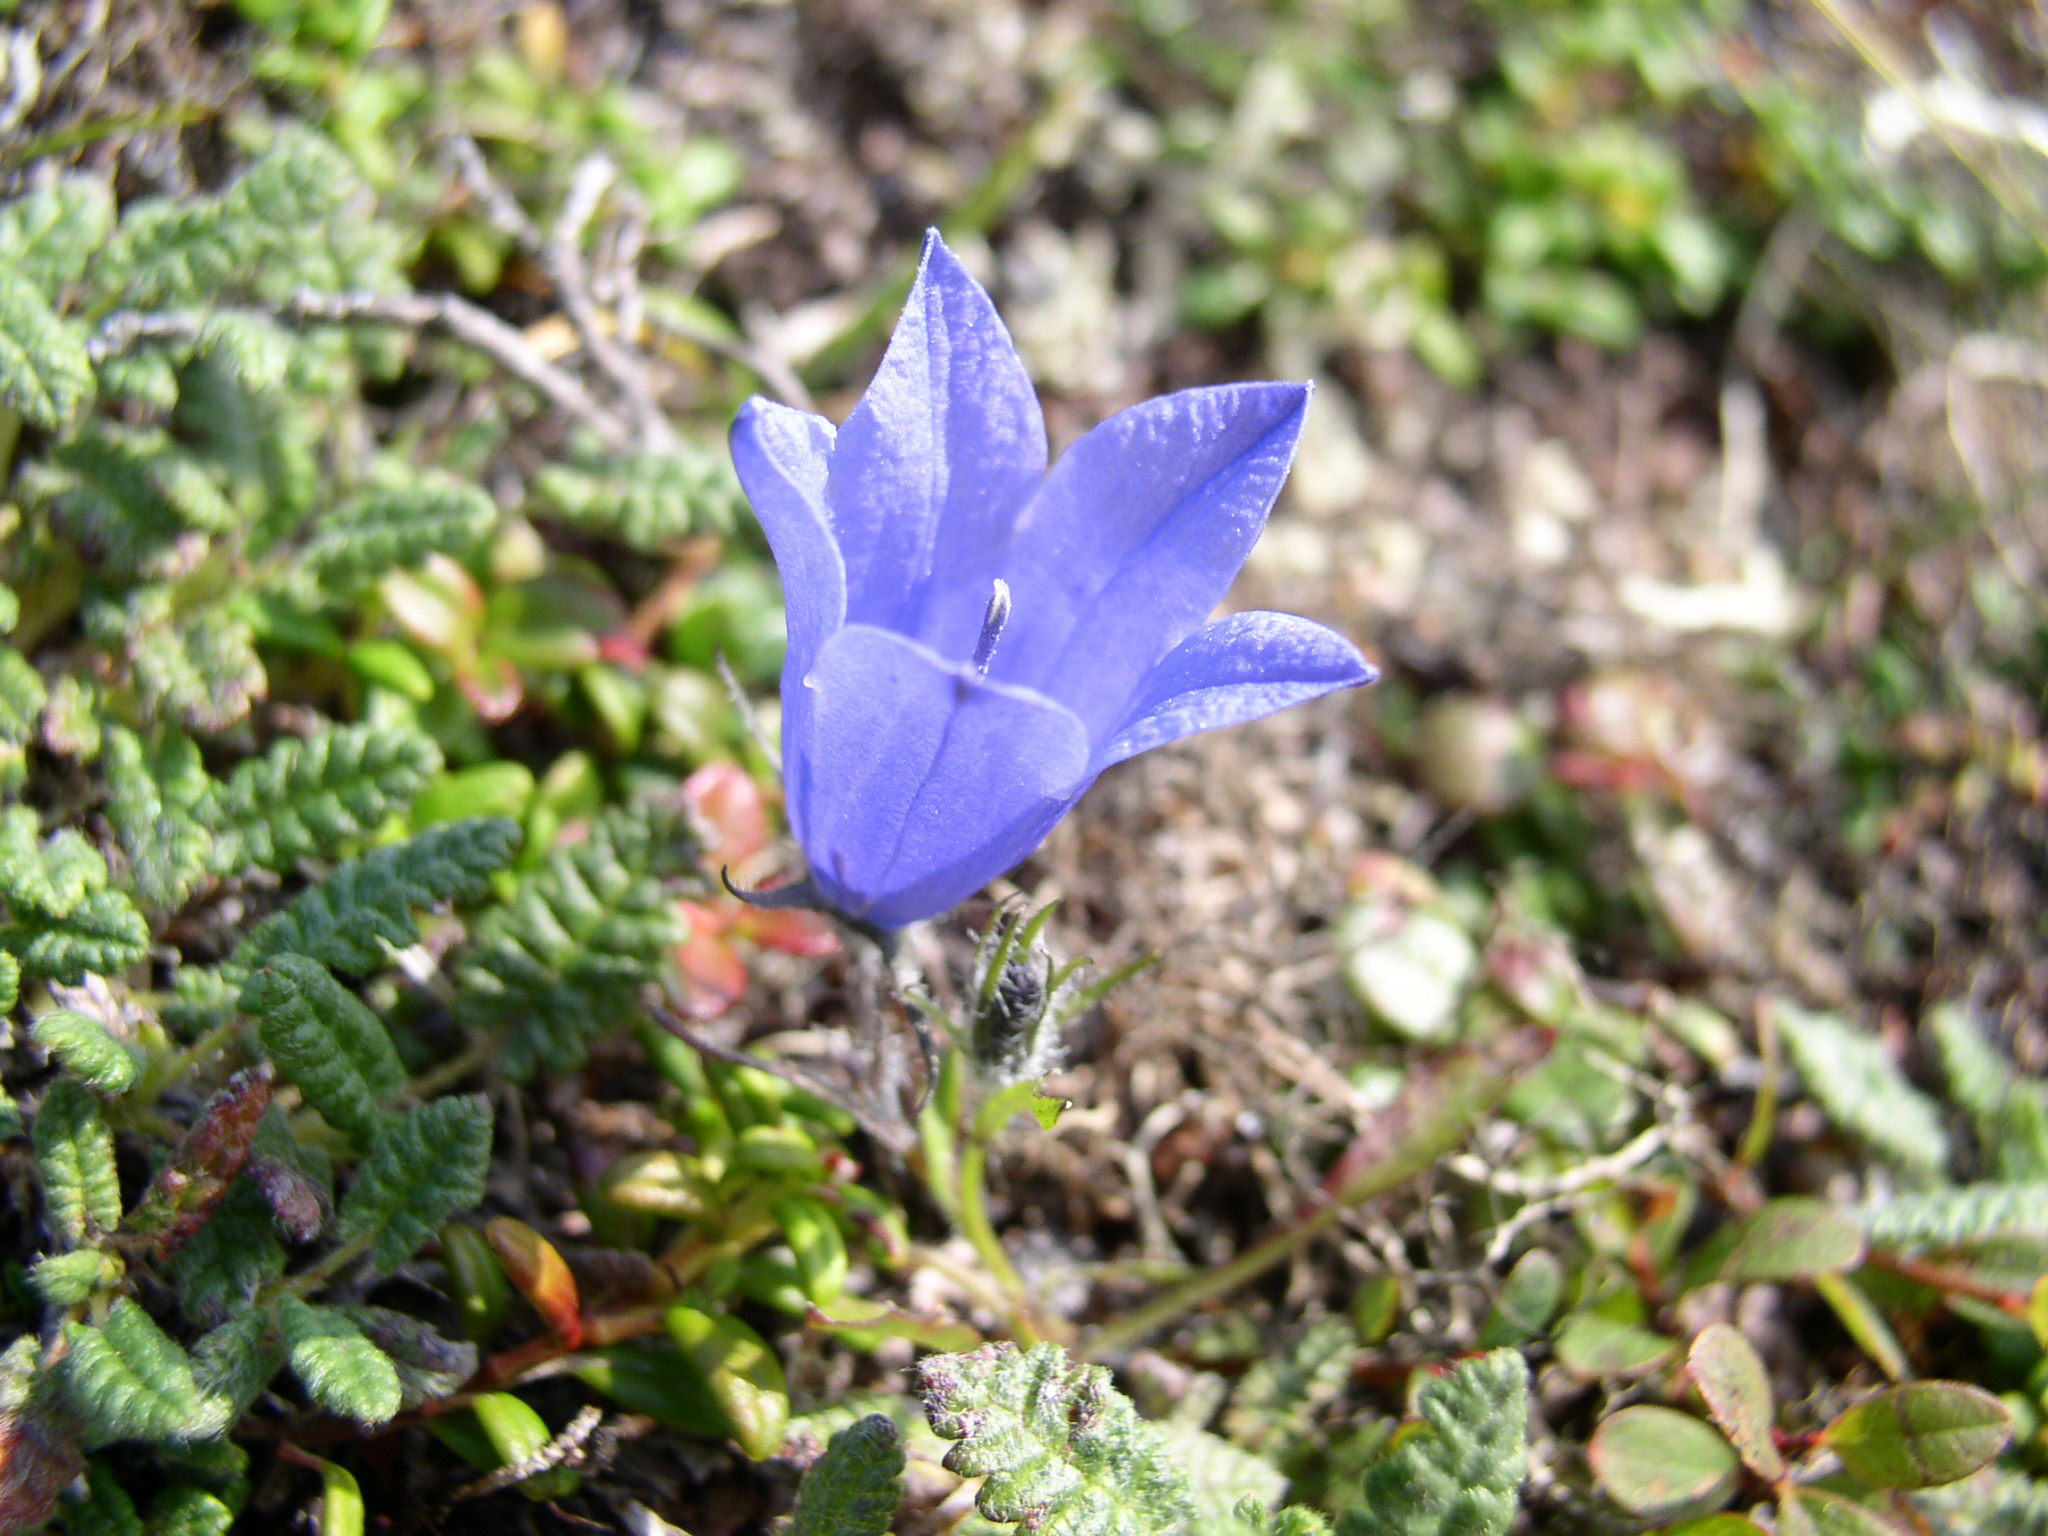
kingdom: Plantae
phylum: Tracheophyta
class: Magnoliopsida
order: Asterales
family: Campanulaceae
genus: Campanula
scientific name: Campanula lasiocarpa
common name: Mountain harebell
